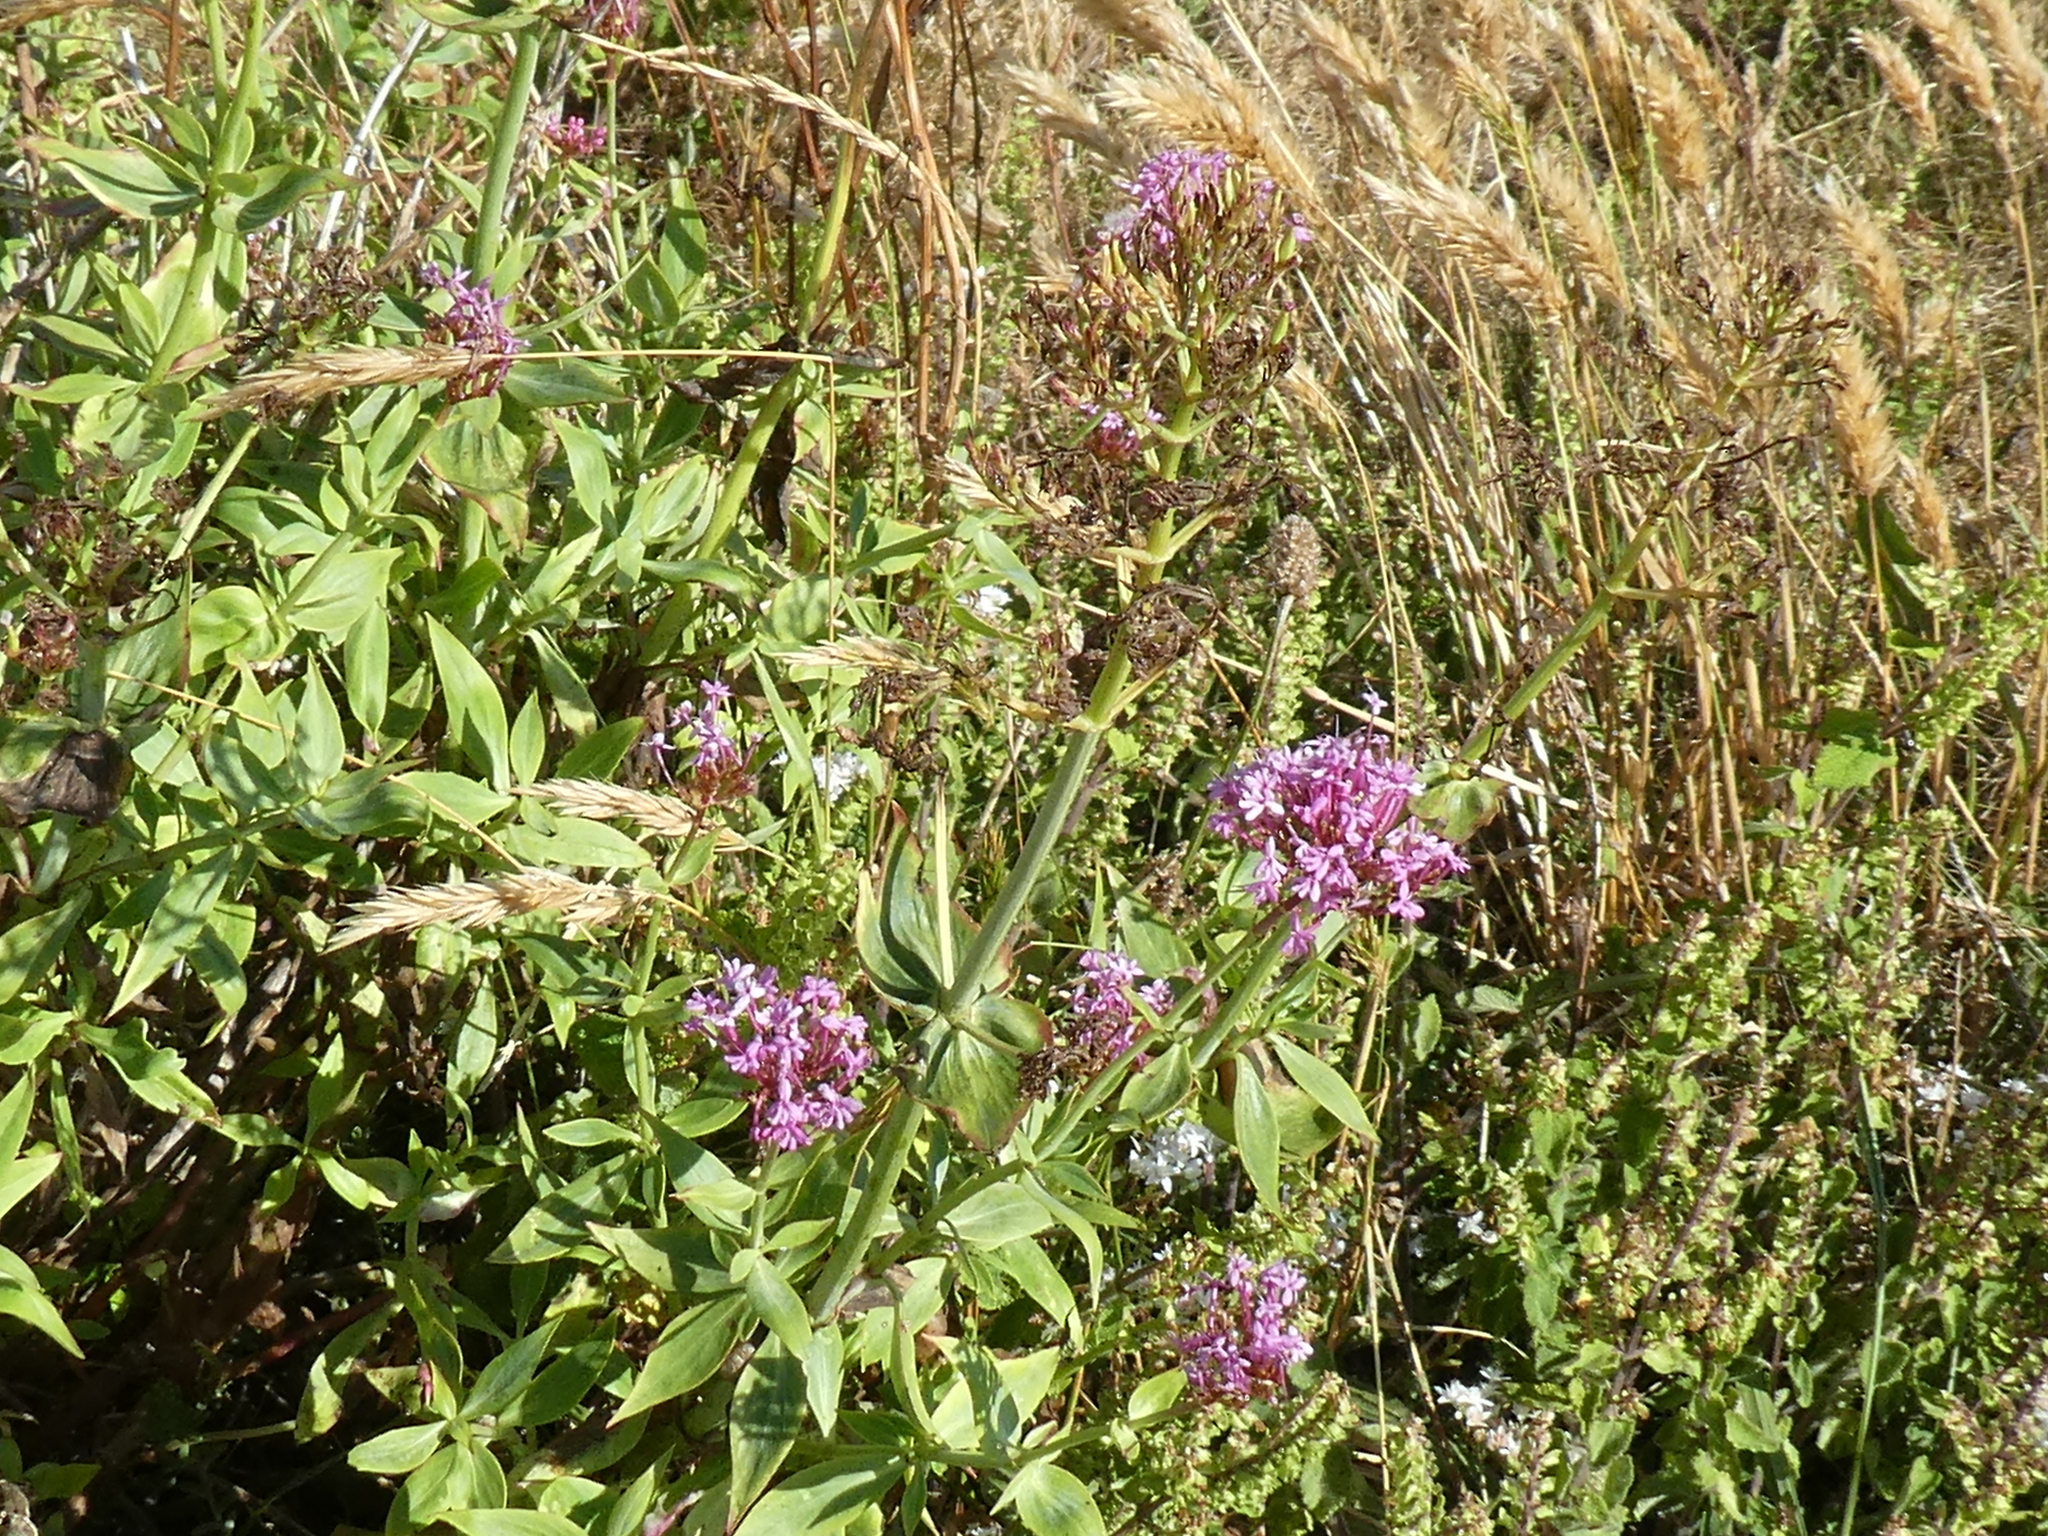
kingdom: Plantae
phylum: Tracheophyta
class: Magnoliopsida
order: Dipsacales
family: Caprifoliaceae
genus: Centranthus
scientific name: Centranthus ruber
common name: Red valerian
